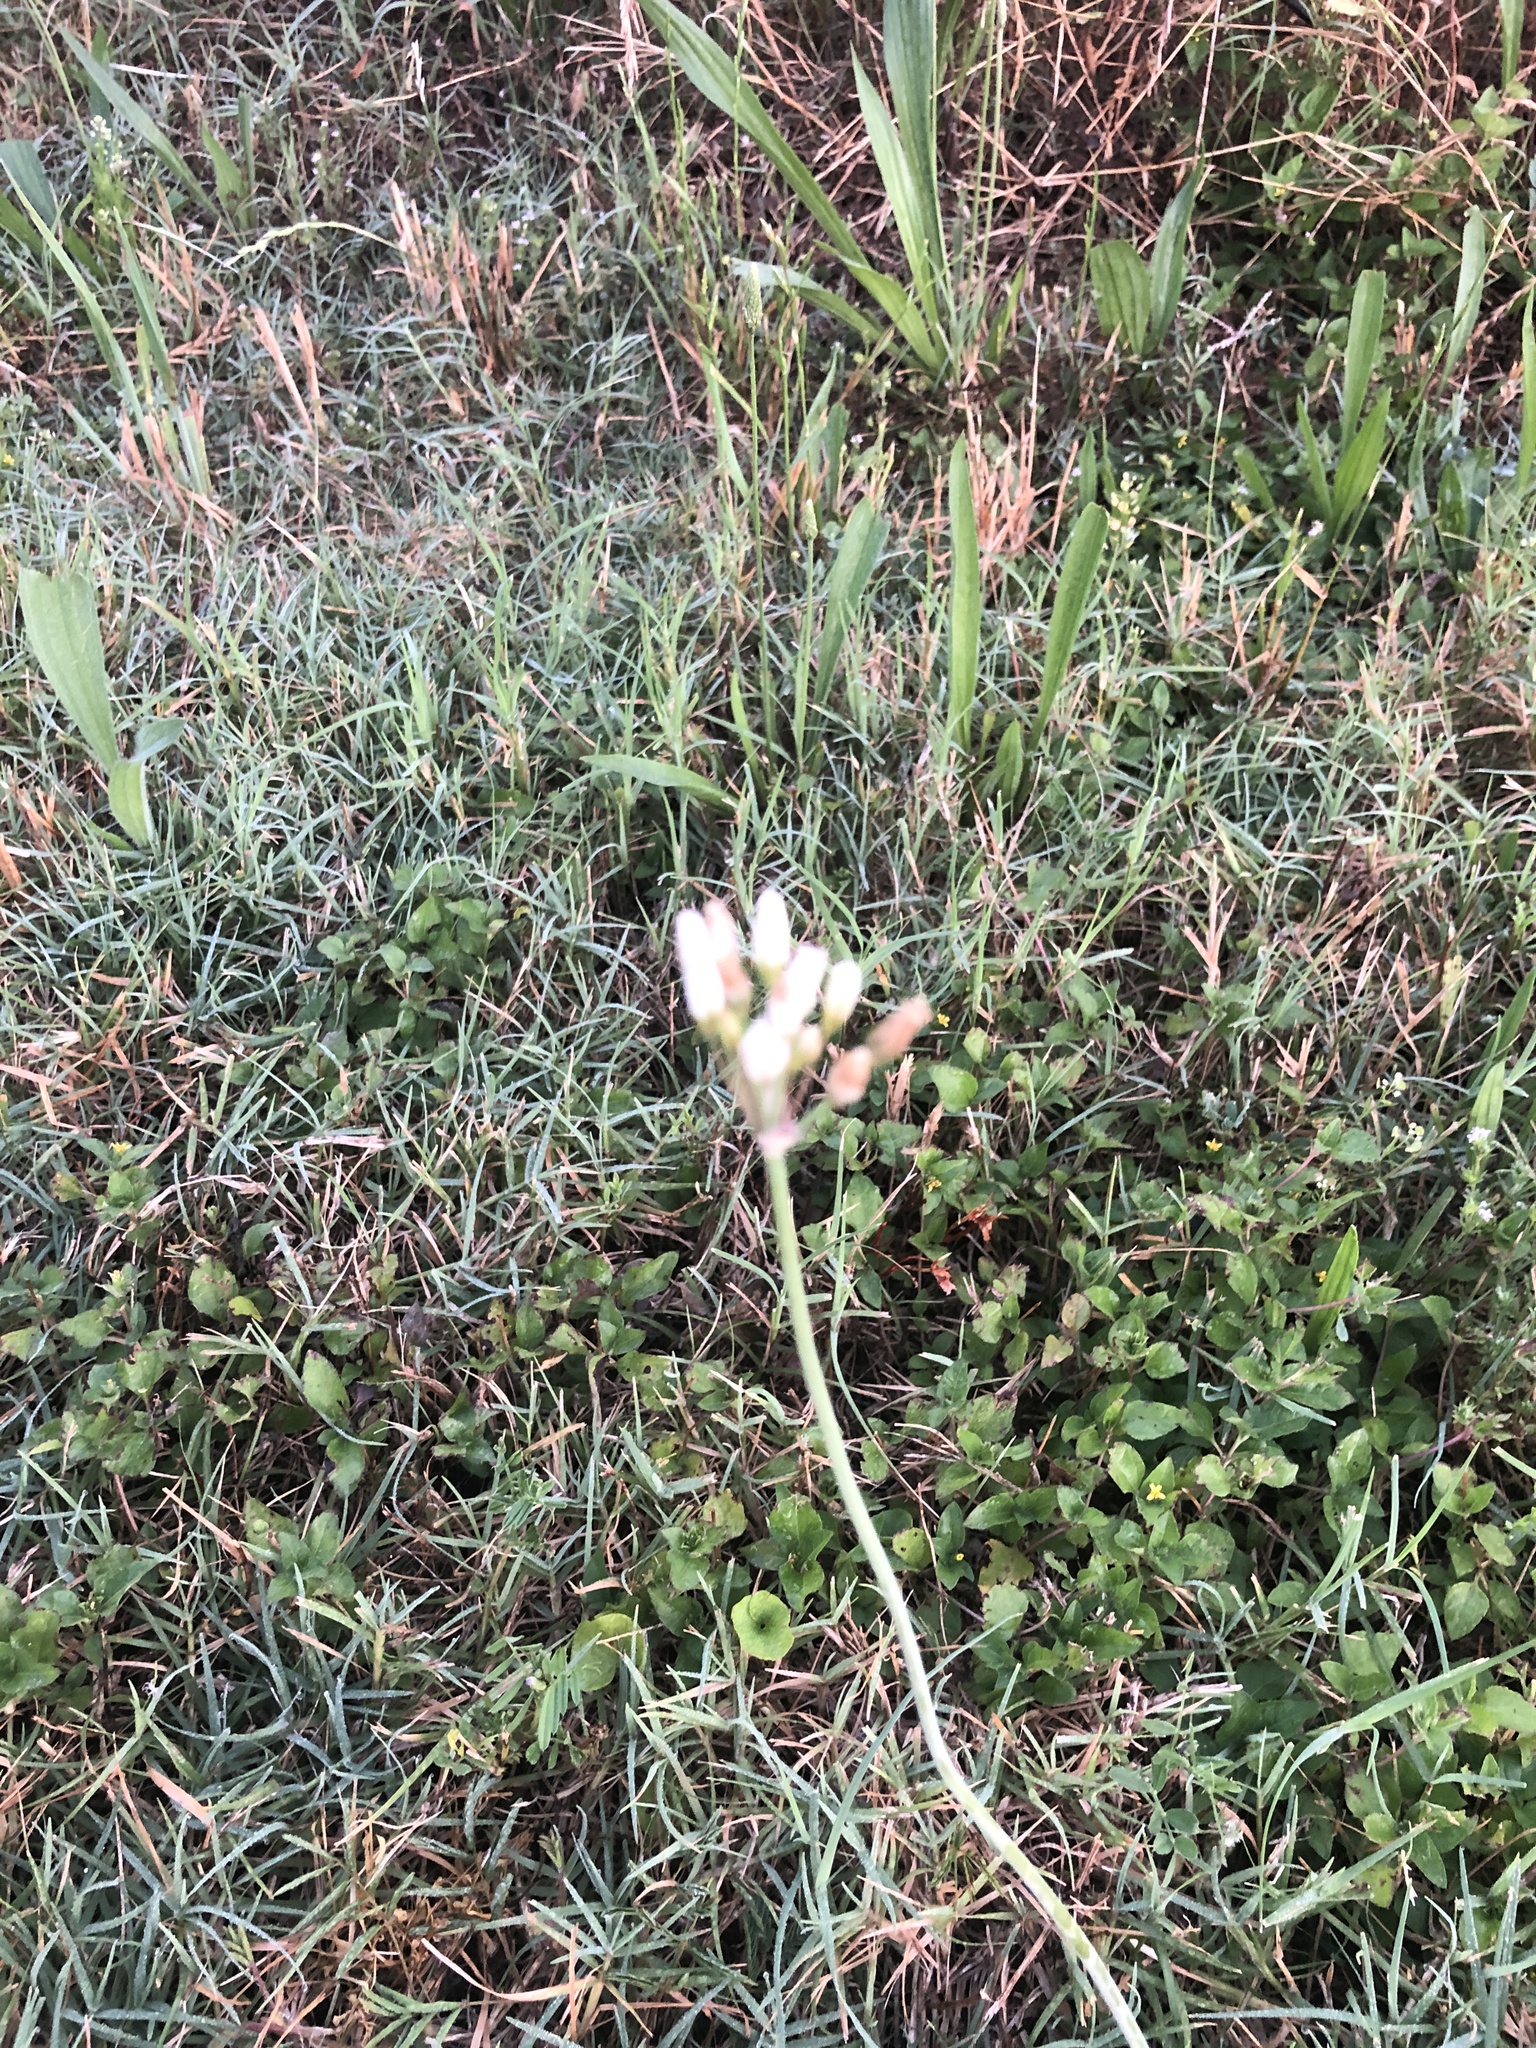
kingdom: Plantae
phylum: Tracheophyta
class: Liliopsida
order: Asparagales
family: Amaryllidaceae
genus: Nothoscordum
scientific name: Nothoscordum gracile
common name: Slender false garlic
